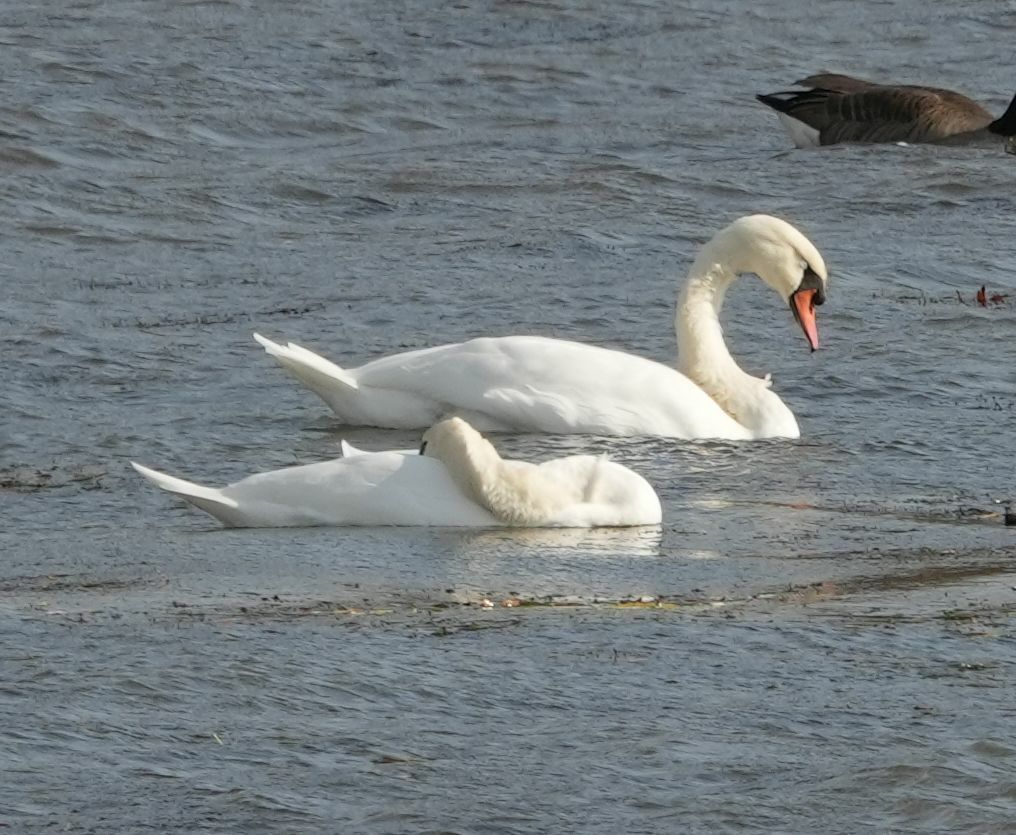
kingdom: Animalia
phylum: Chordata
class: Aves
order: Anseriformes
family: Anatidae
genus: Cygnus
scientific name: Cygnus olor
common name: Mute swan
